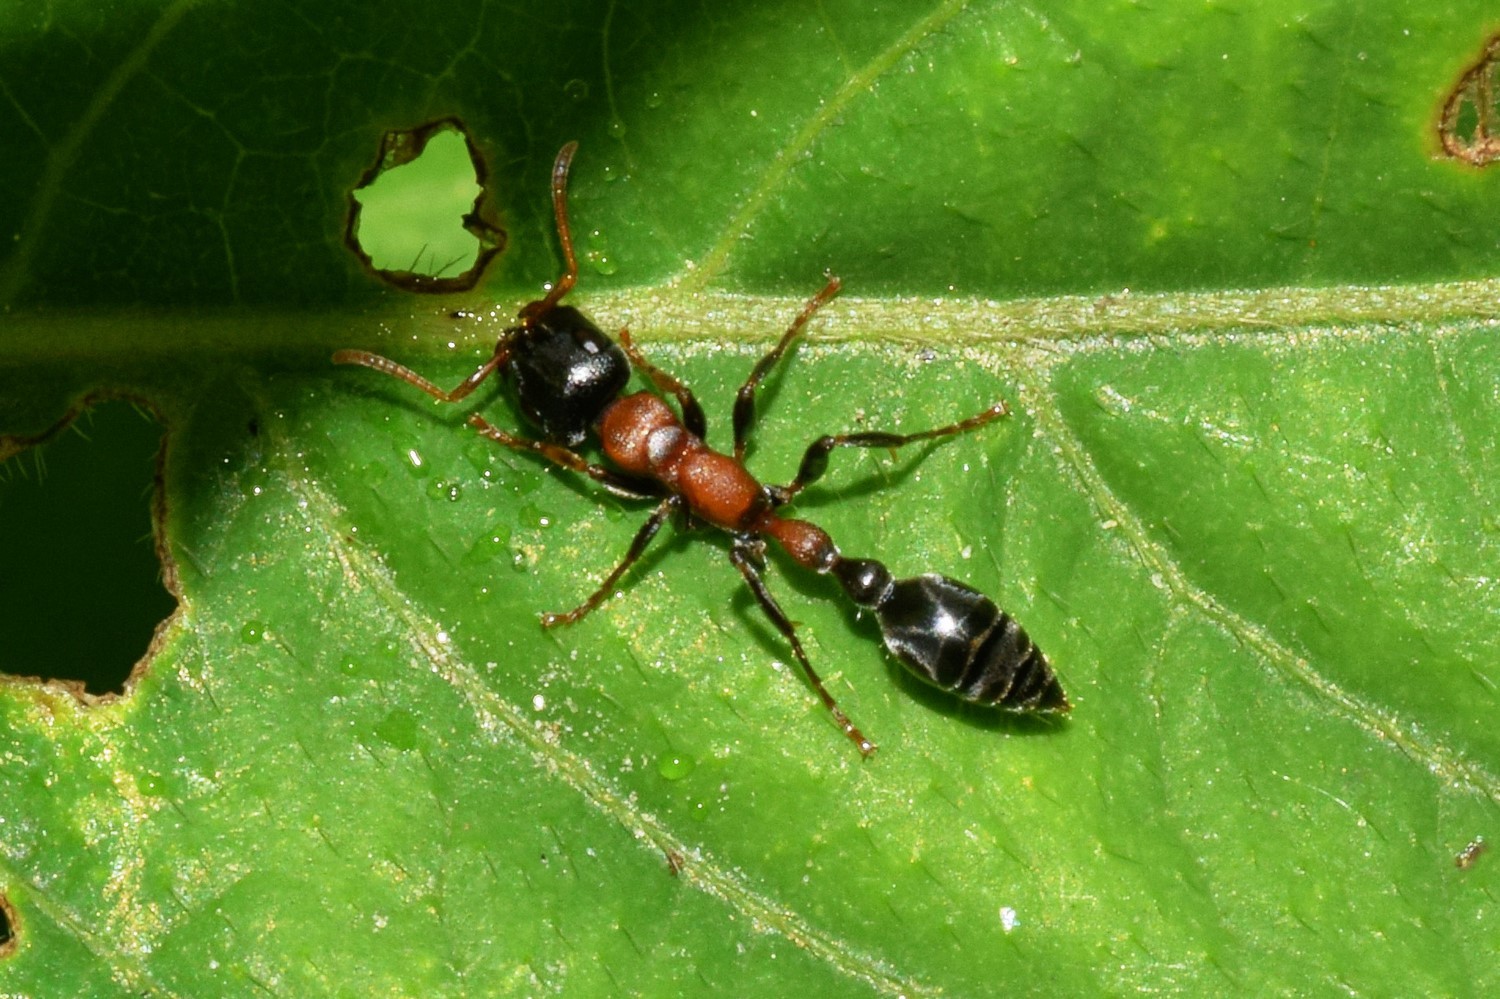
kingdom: Animalia
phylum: Arthropoda
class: Insecta
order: Hymenoptera
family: Formicidae
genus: Tetraponera
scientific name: Tetraponera rufonigra
